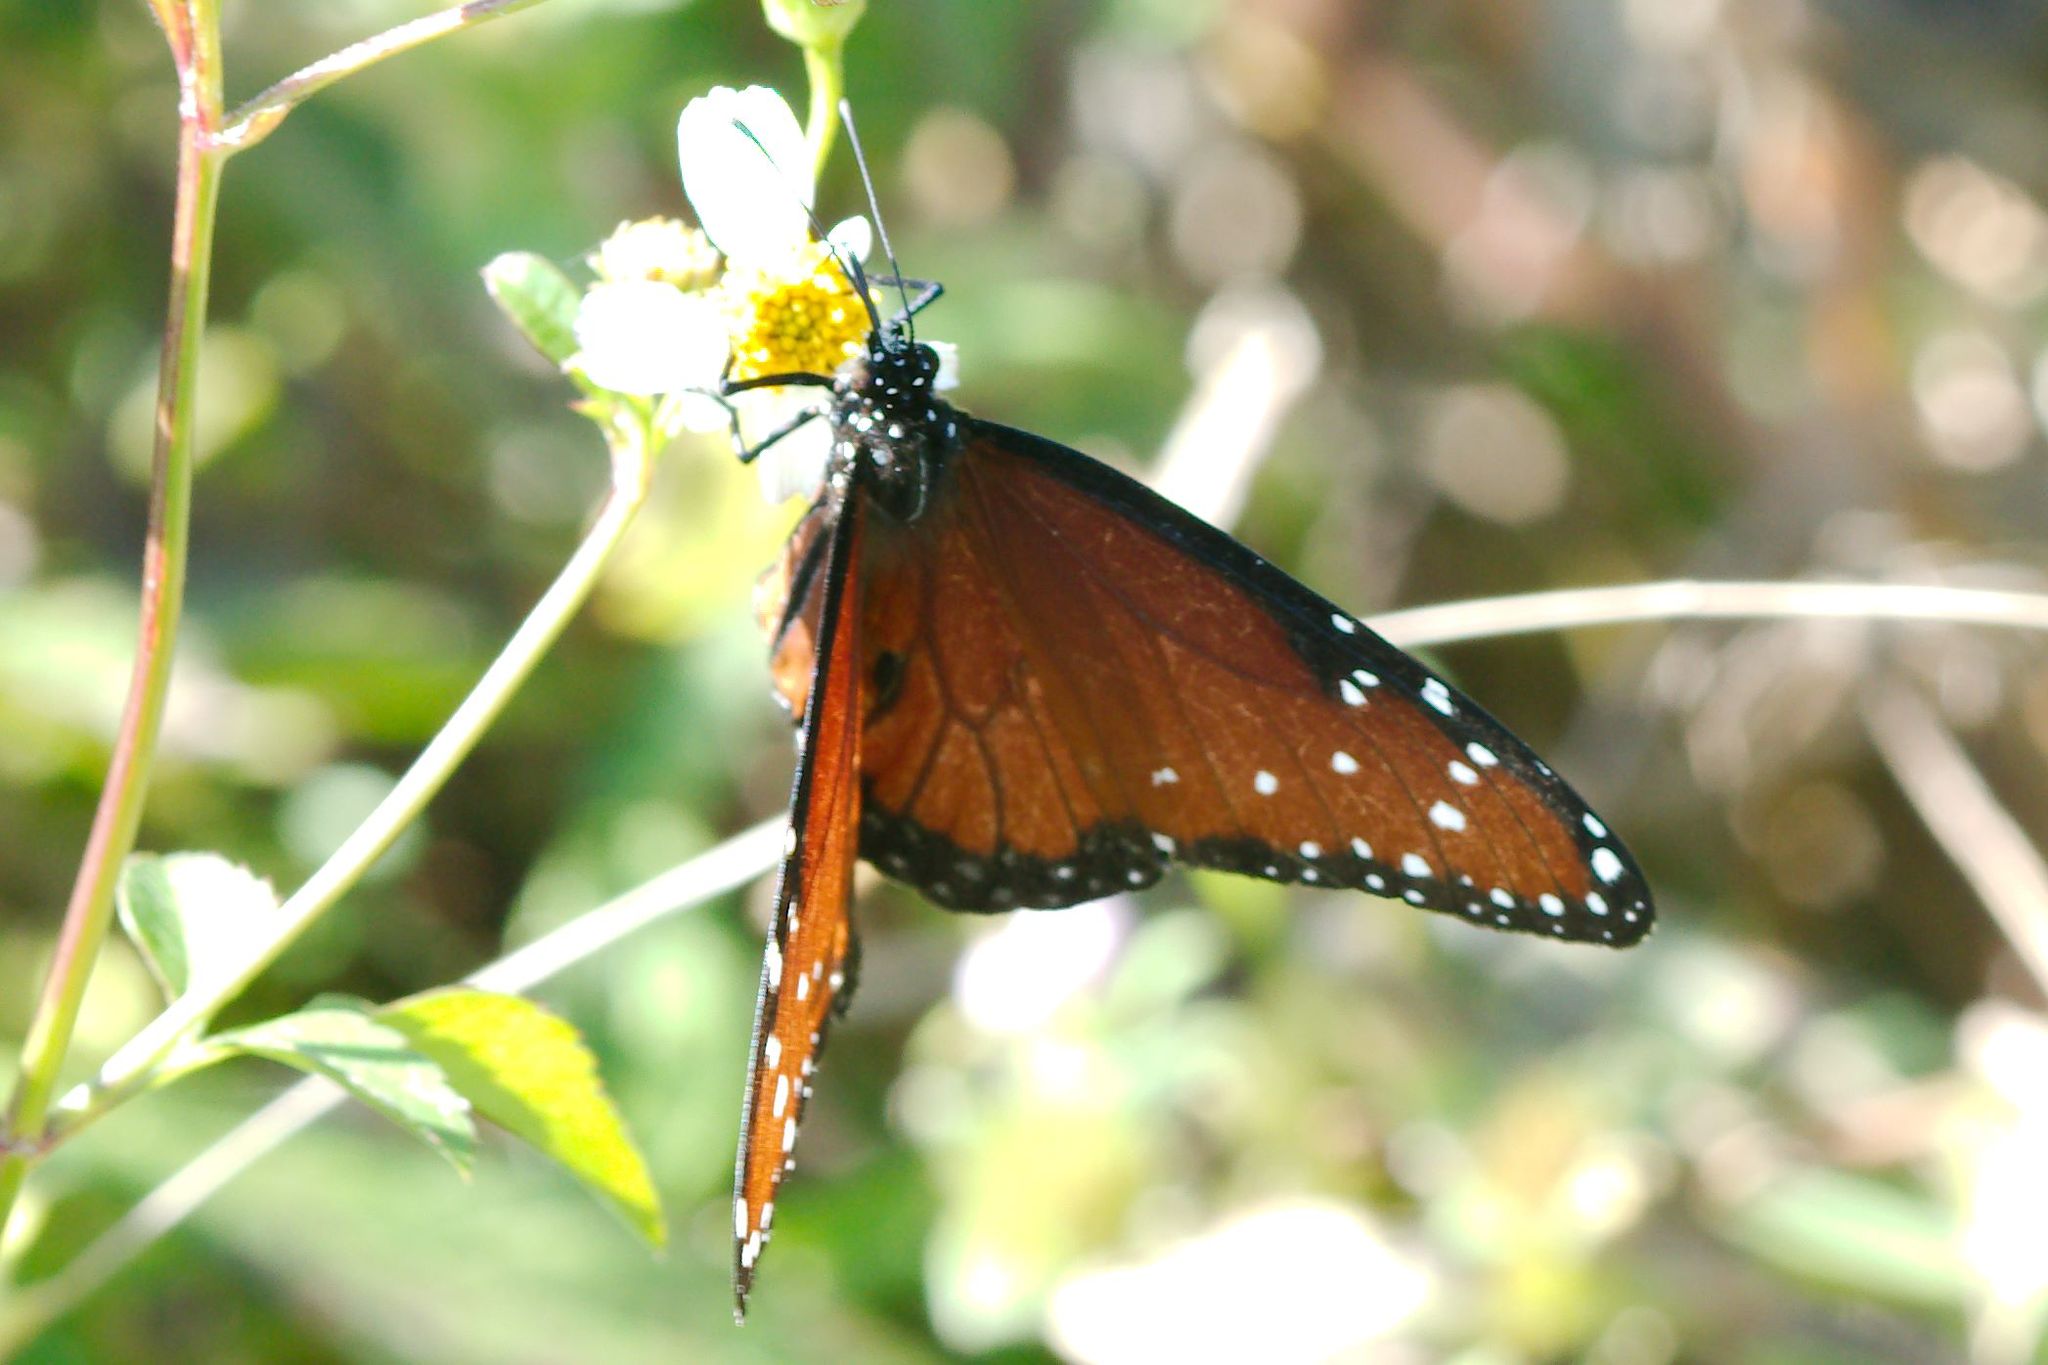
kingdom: Animalia
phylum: Arthropoda
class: Insecta
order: Lepidoptera
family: Nymphalidae
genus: Danaus
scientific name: Danaus gilippus
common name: Queen
